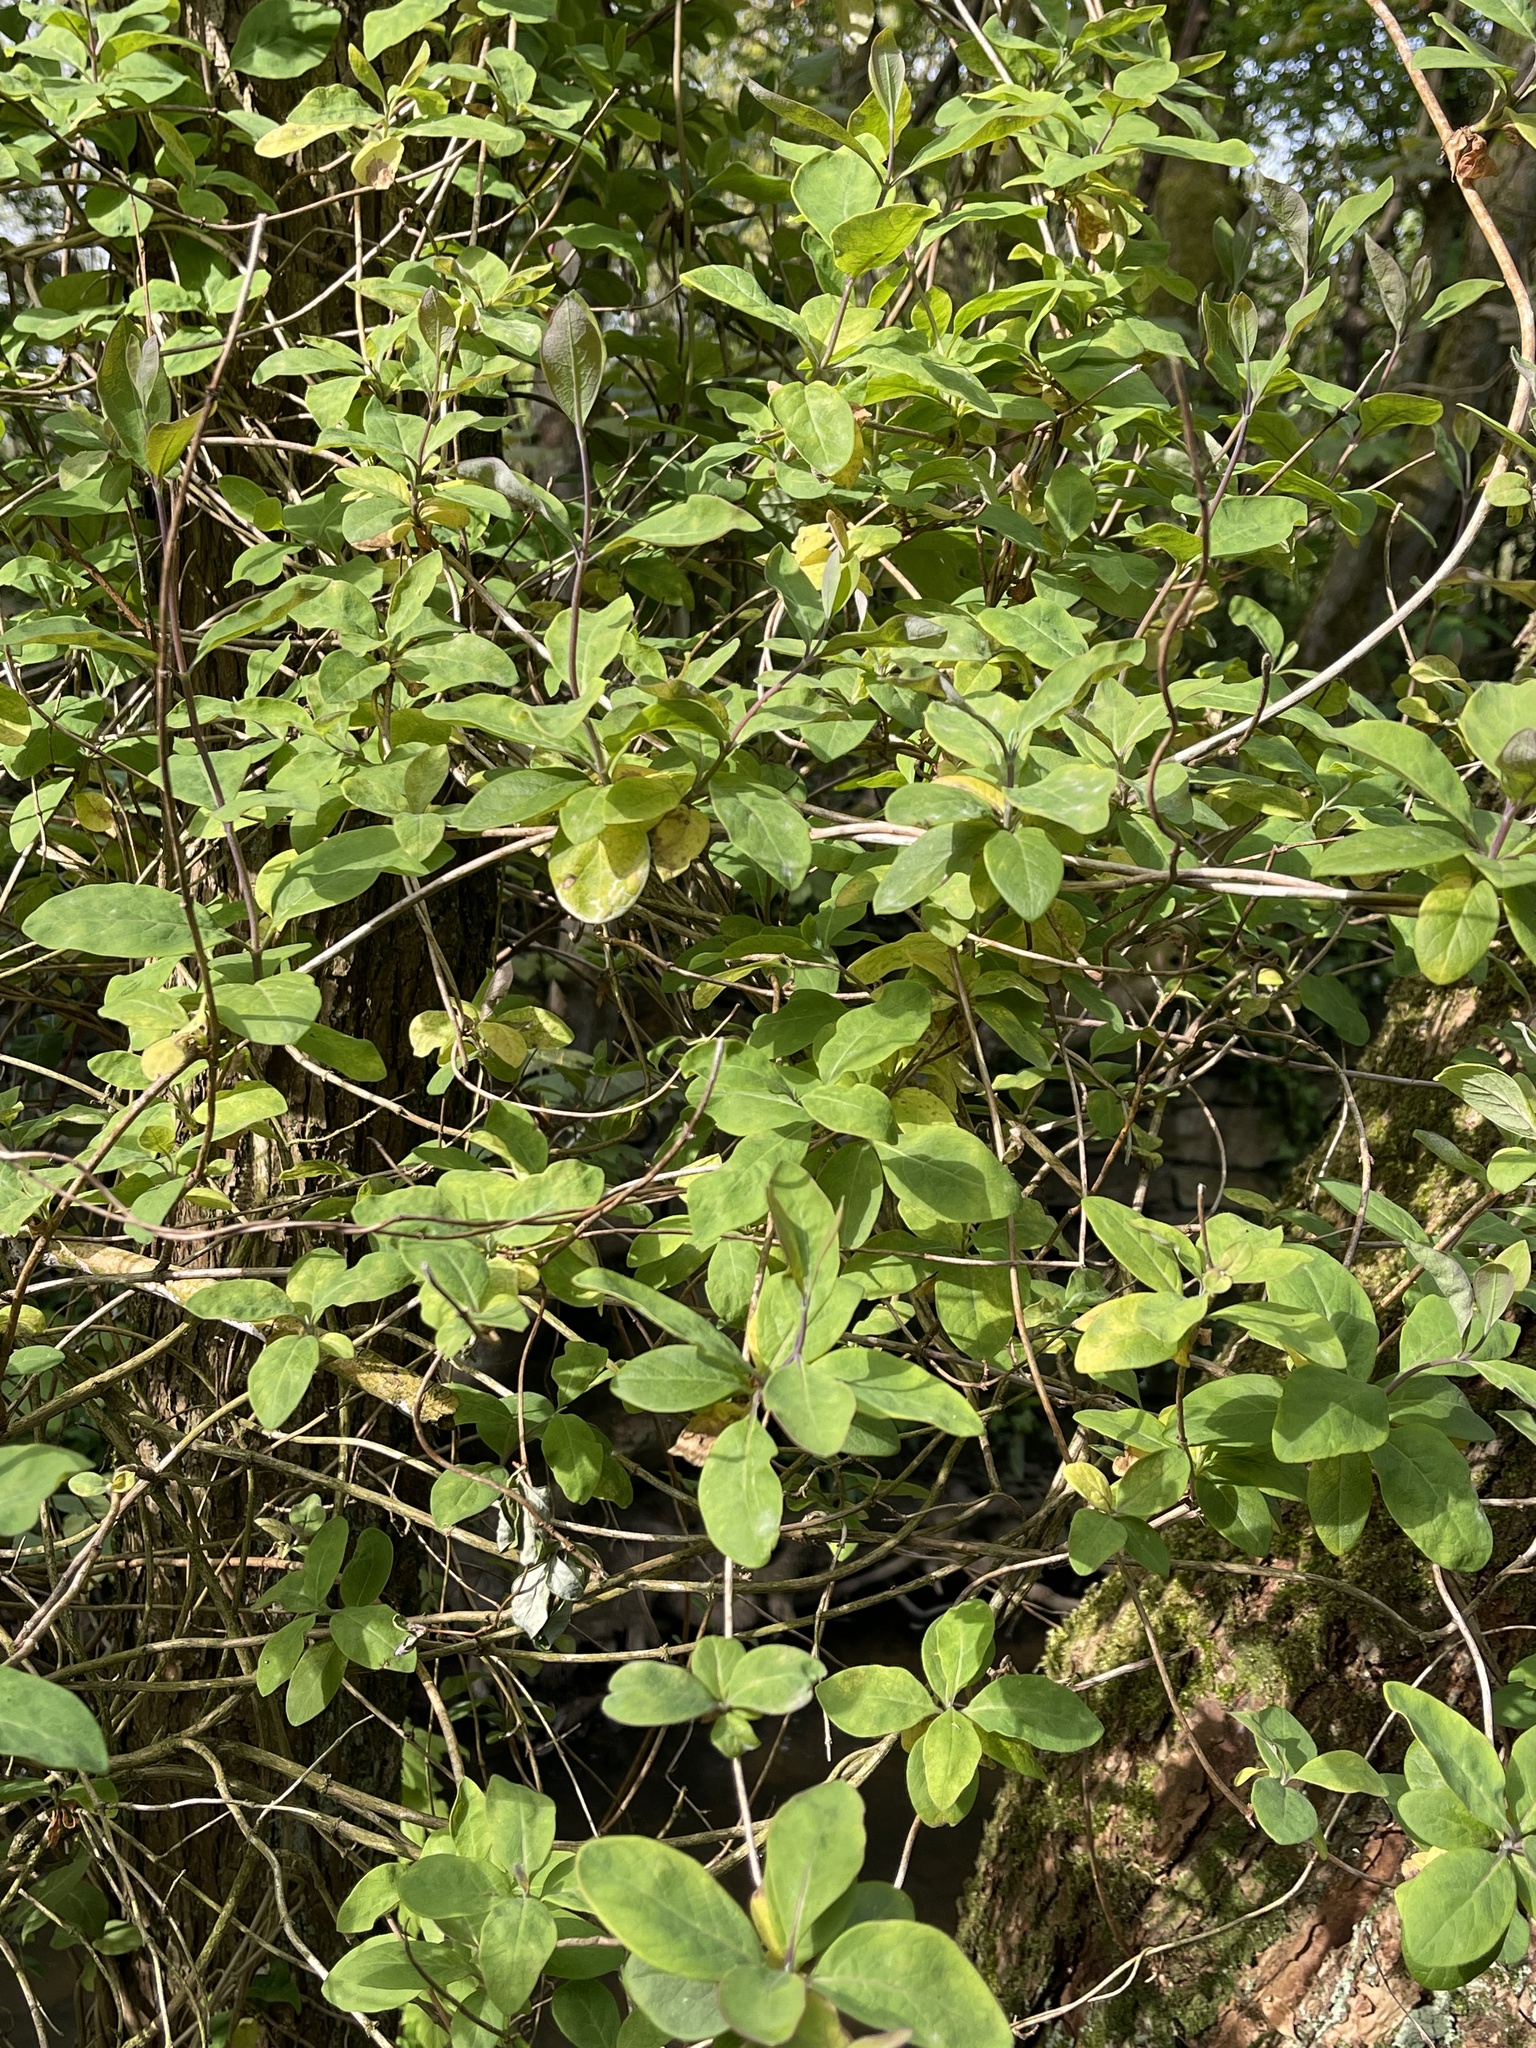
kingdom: Plantae
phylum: Tracheophyta
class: Magnoliopsida
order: Dipsacales
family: Caprifoliaceae
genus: Lonicera
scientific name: Lonicera periclymenum
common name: European honeysuckle
